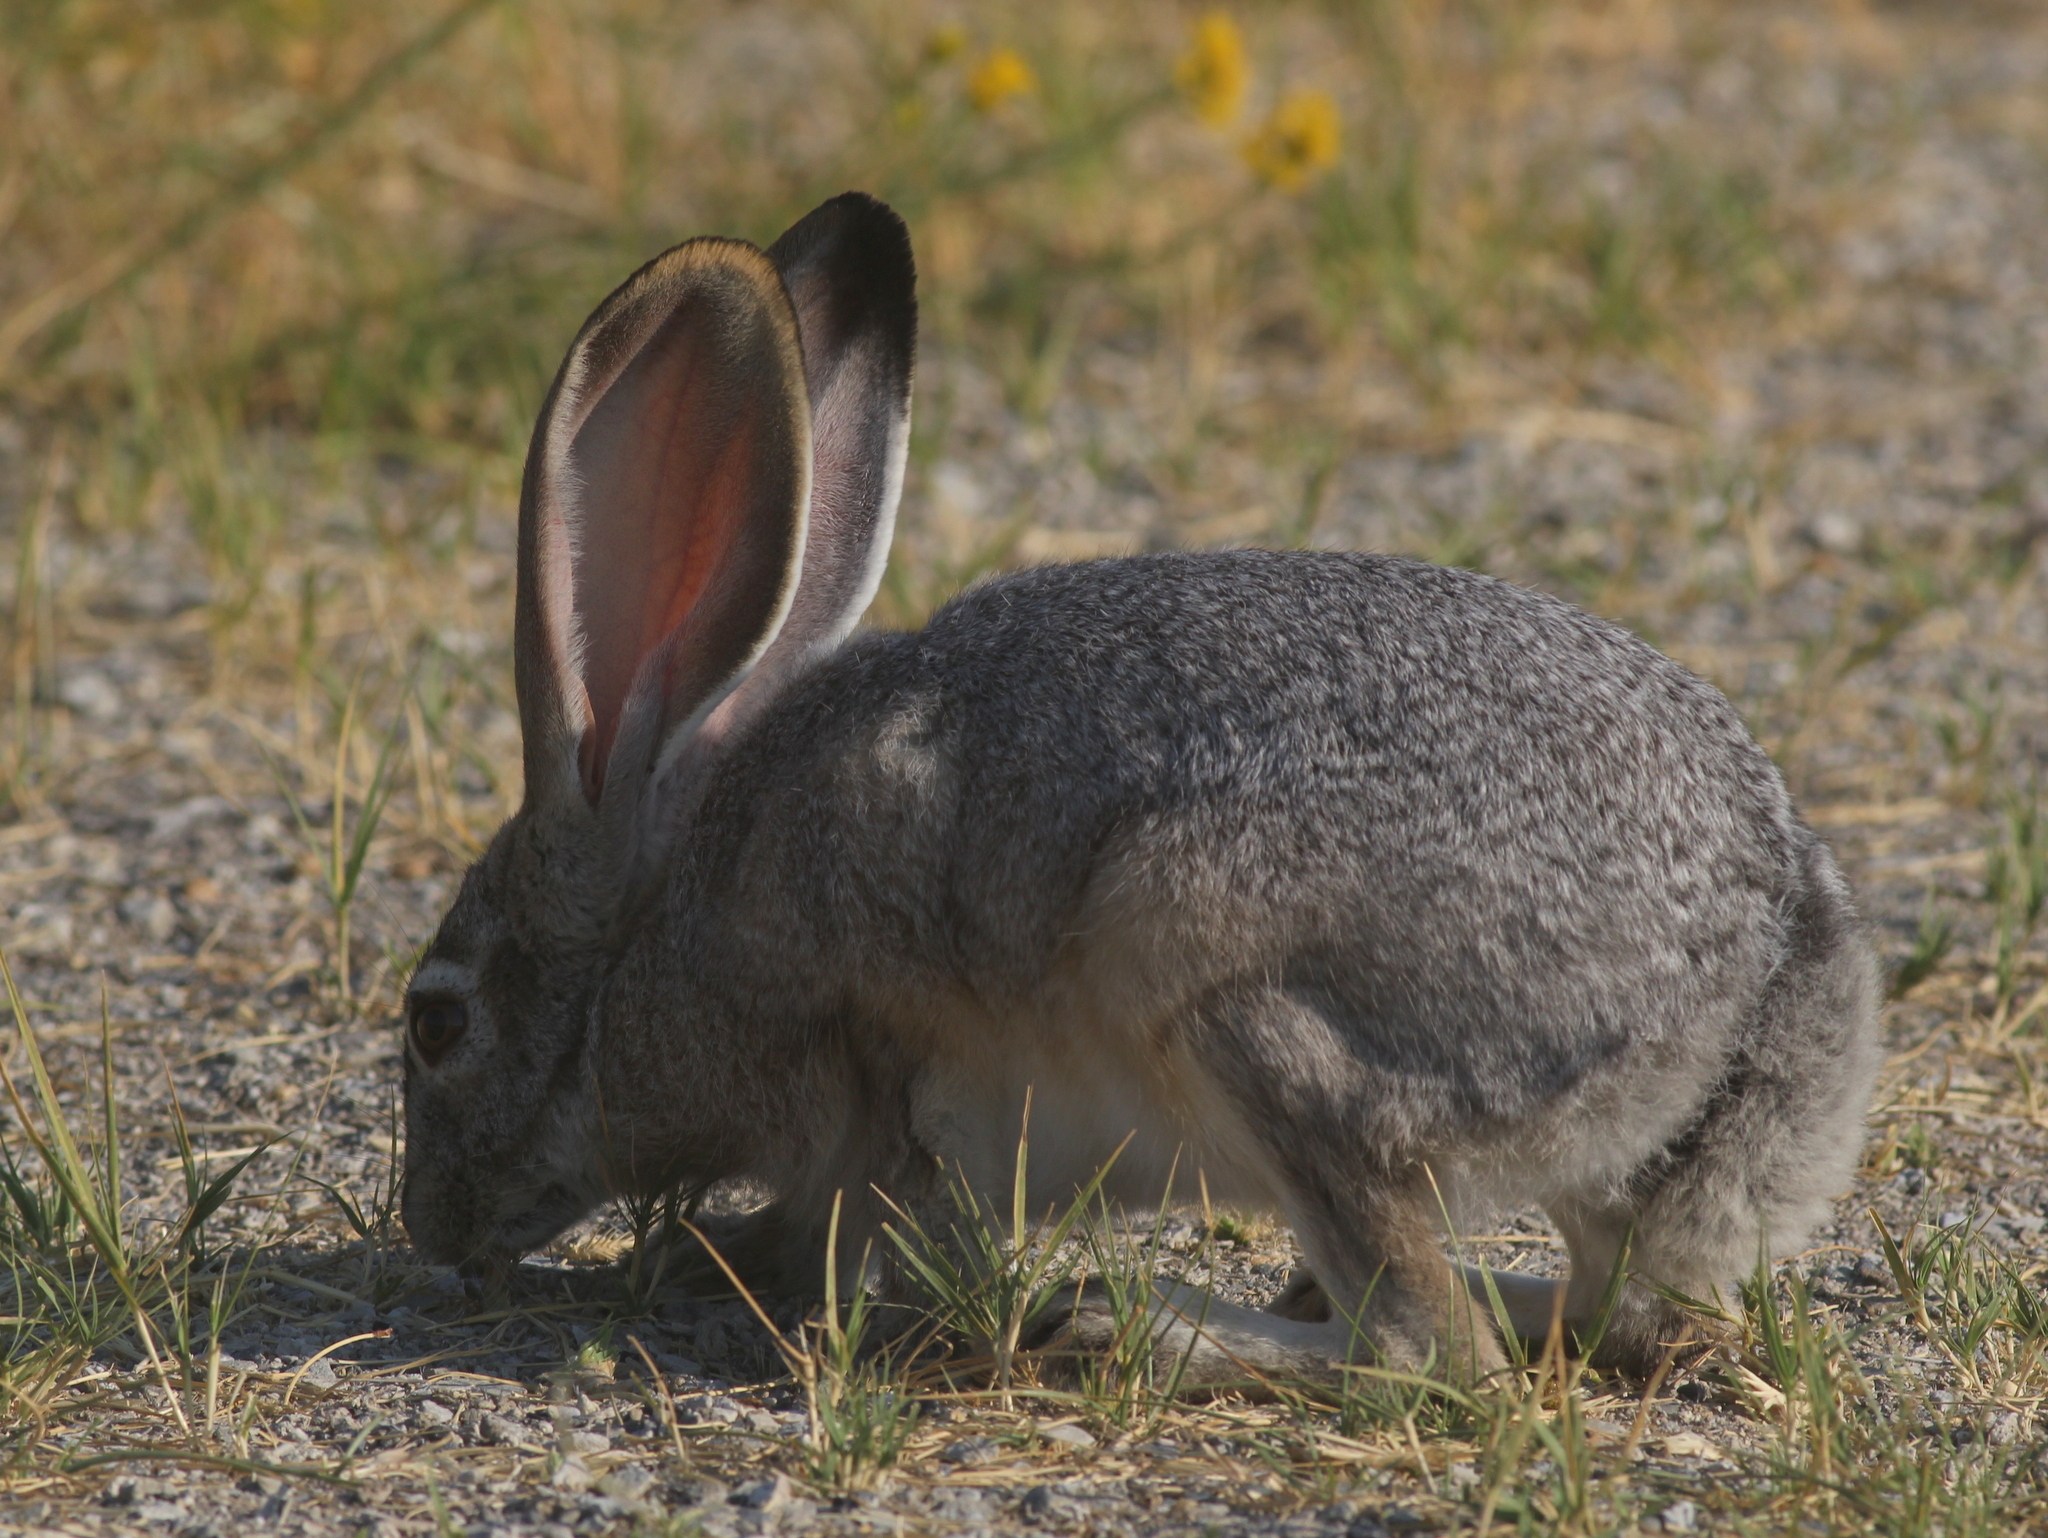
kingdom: Animalia
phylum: Chordata
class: Mammalia
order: Lagomorpha
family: Leporidae
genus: Lepus
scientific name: Lepus californicus
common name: Black-tailed jackrabbit
